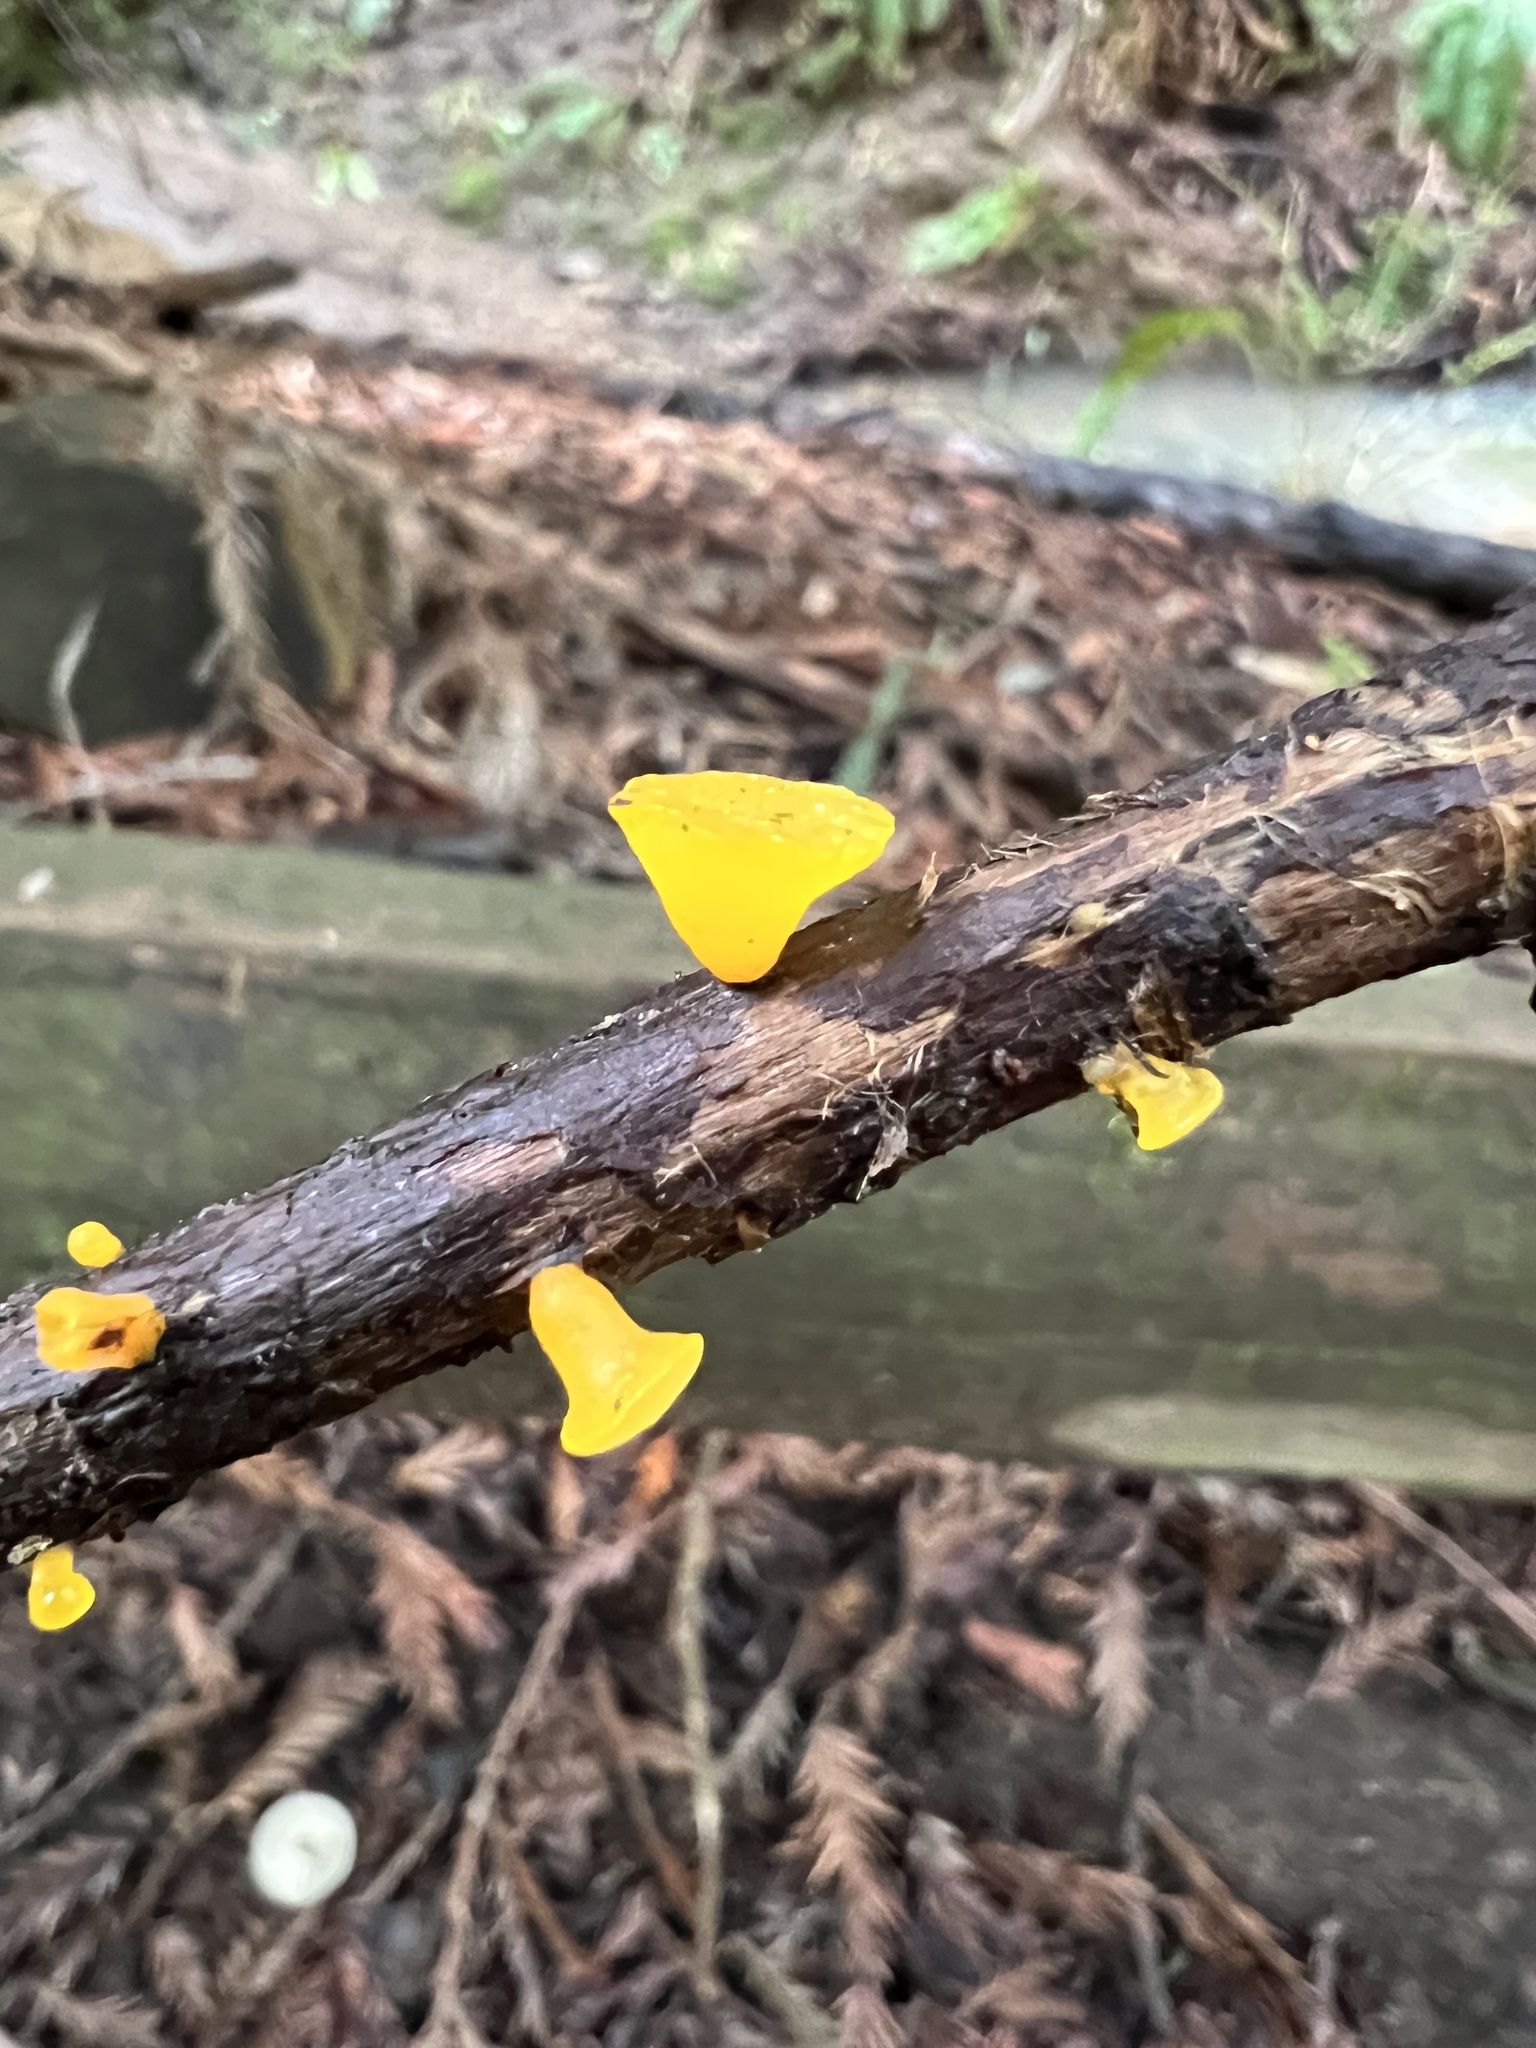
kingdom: Fungi
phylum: Basidiomycota
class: Dacrymycetes
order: Dacrymycetales
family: Dacrymycetaceae
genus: Guepiniopsis
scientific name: Guepiniopsis alpina
